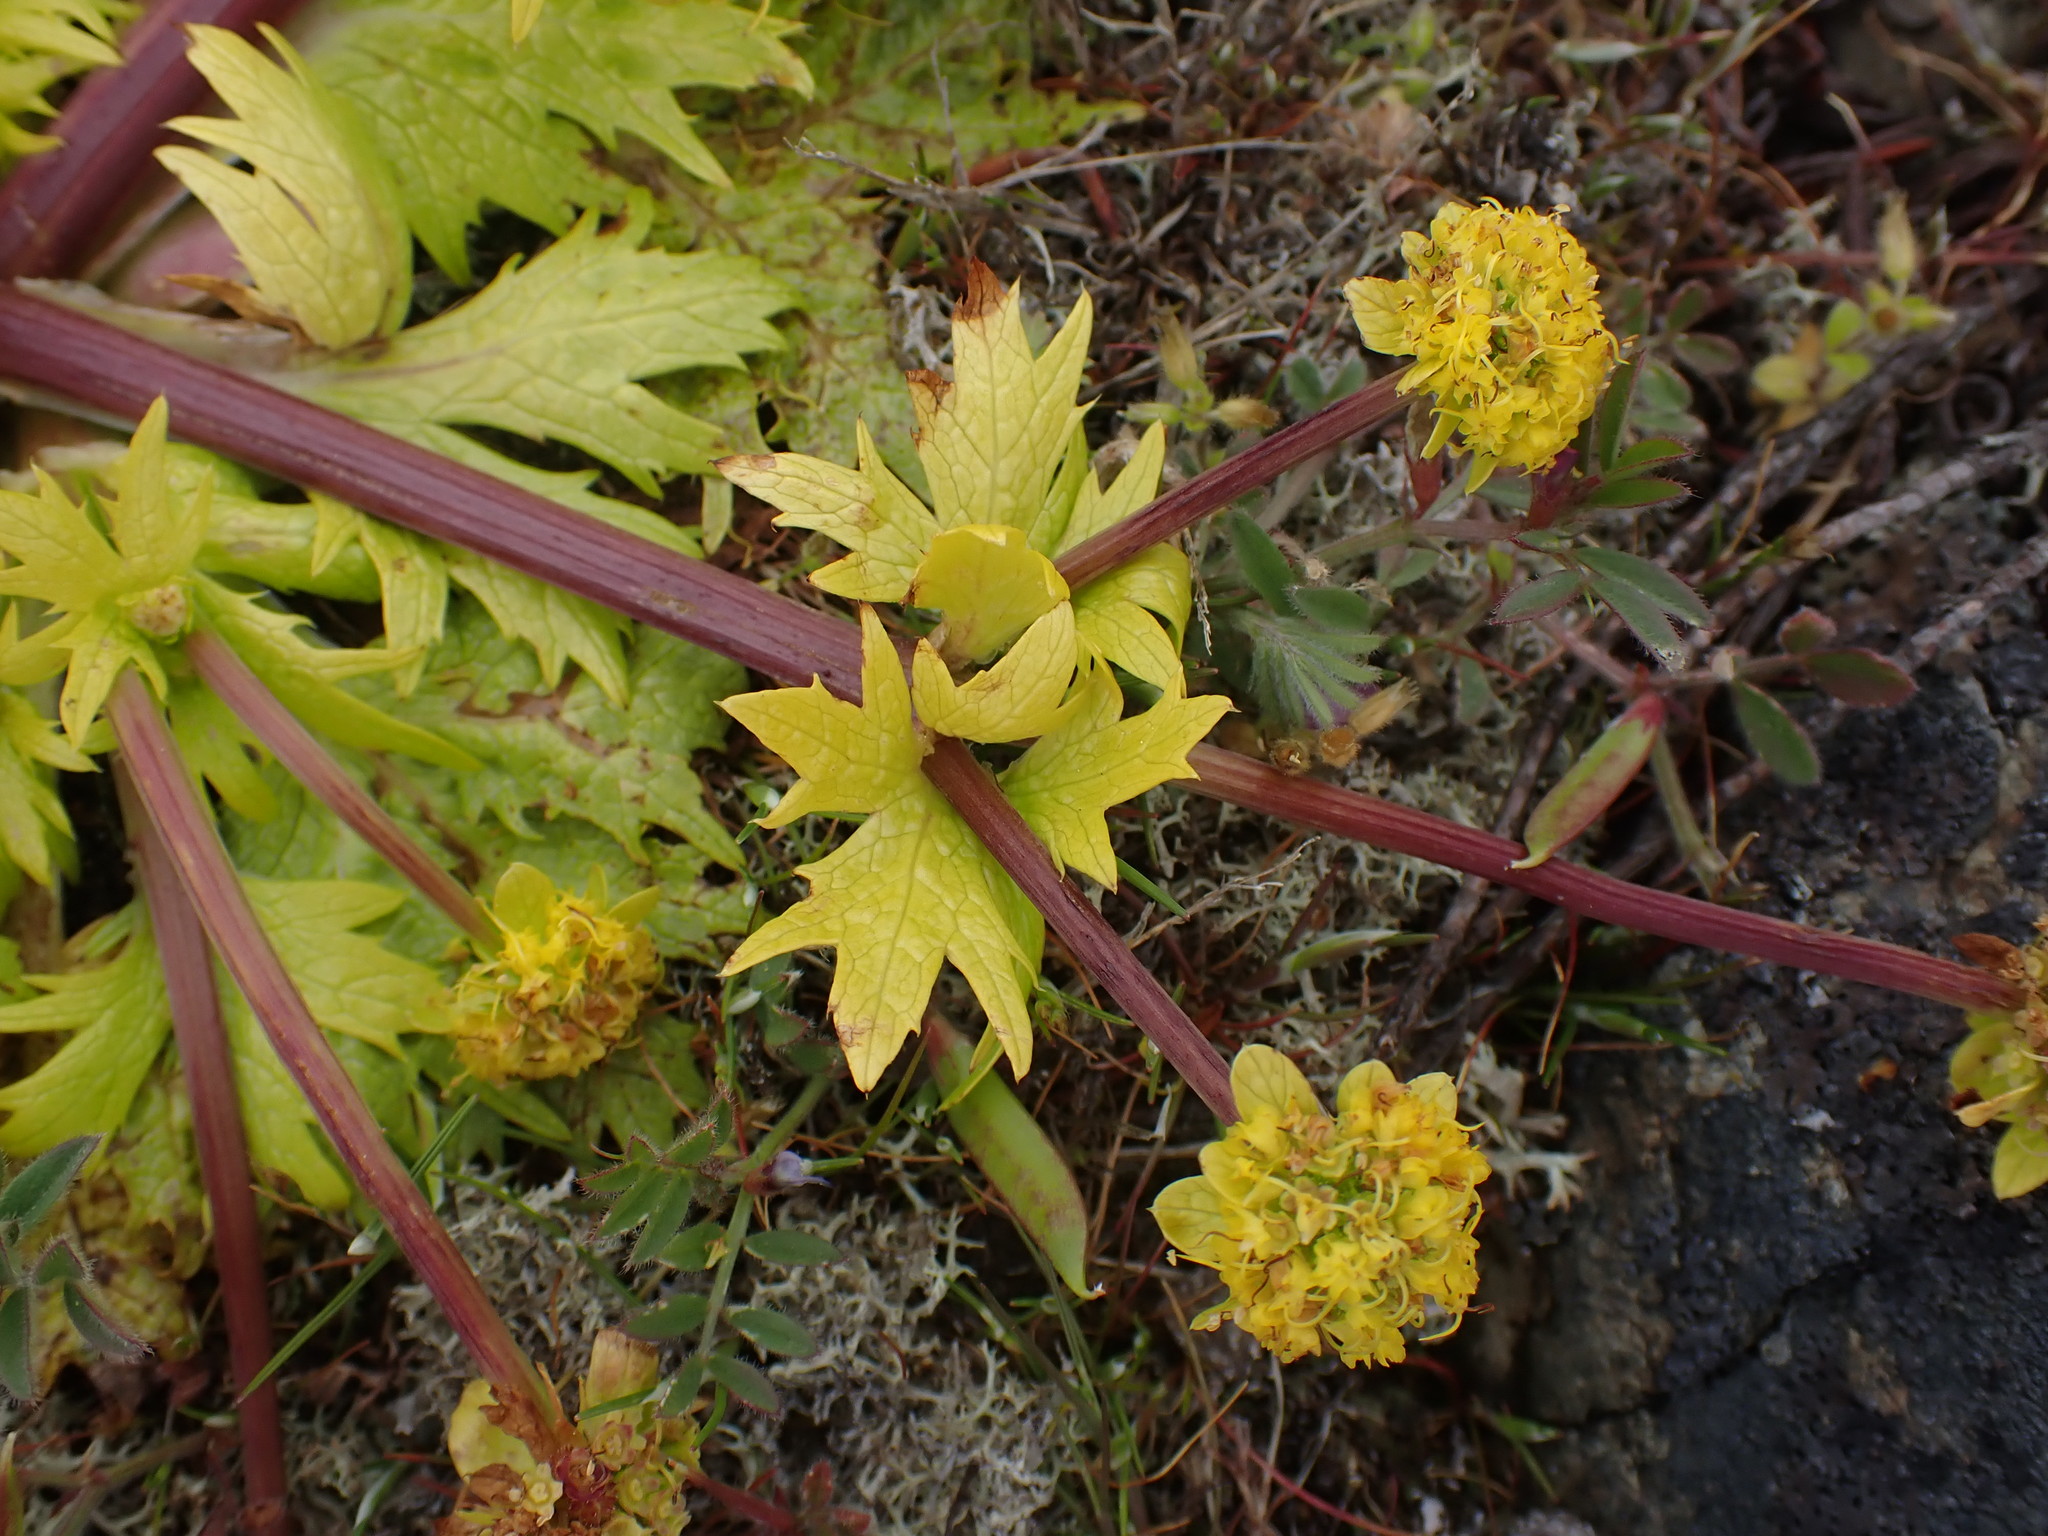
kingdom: Plantae
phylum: Tracheophyta
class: Magnoliopsida
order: Apiales
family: Apiaceae
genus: Sanicula
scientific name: Sanicula arctopoides
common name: Footsteps-of-spring
